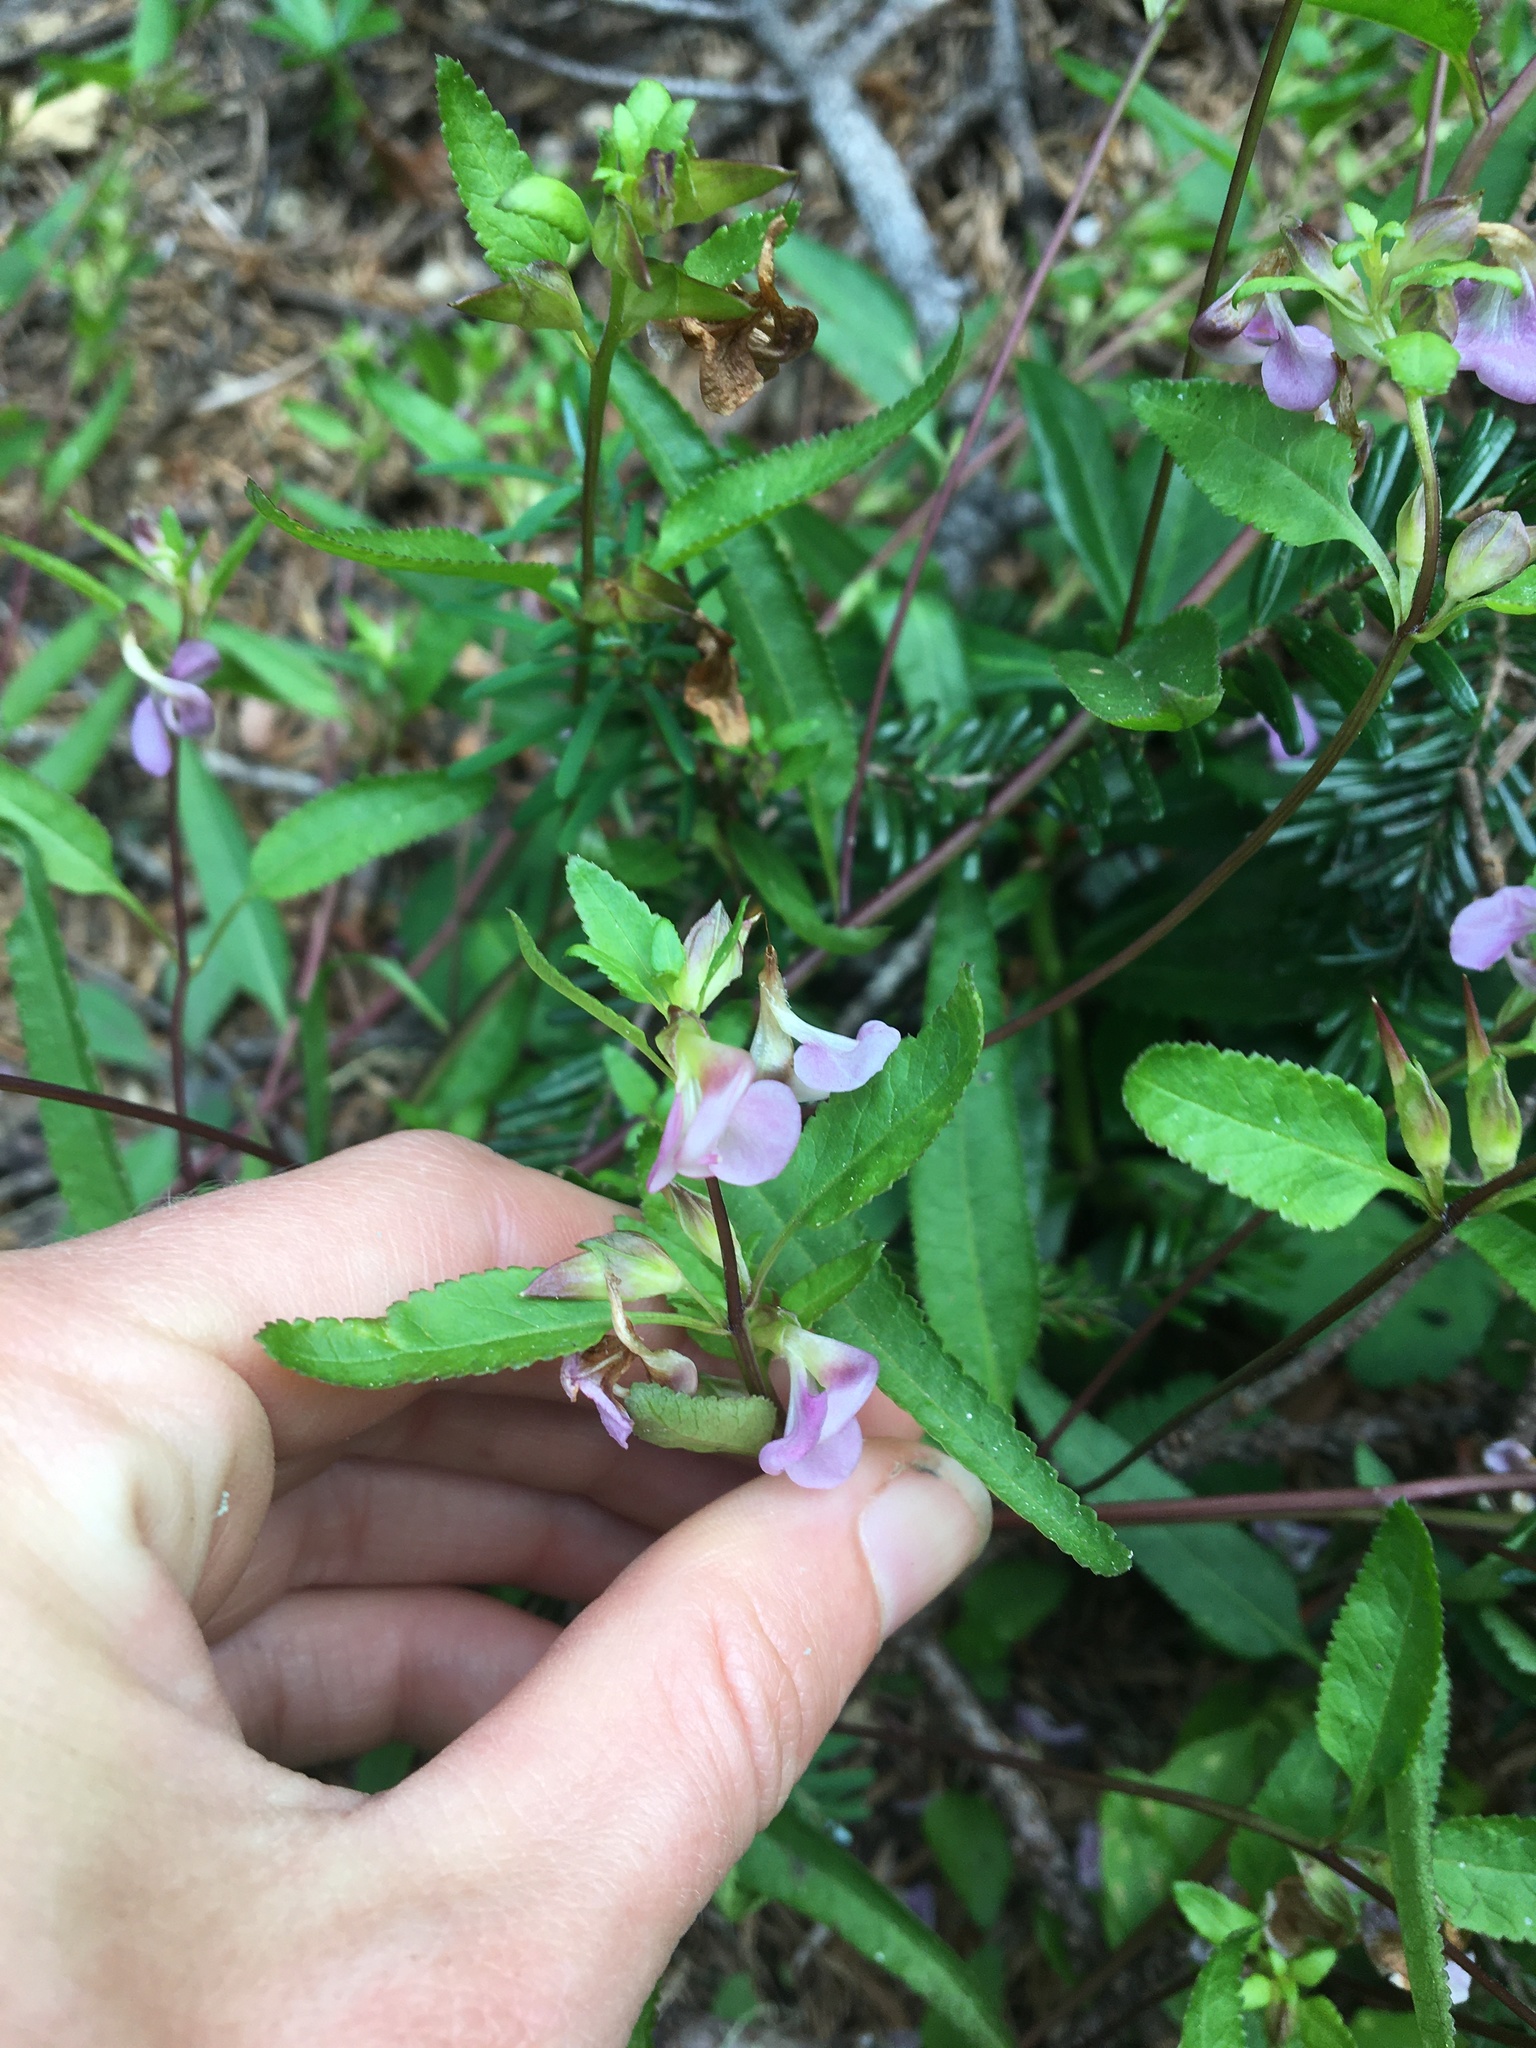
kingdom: Plantae
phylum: Tracheophyta
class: Magnoliopsida
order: Lamiales
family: Orobanchaceae
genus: Pedicularis
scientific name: Pedicularis racemosa
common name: Leafy lousewort
